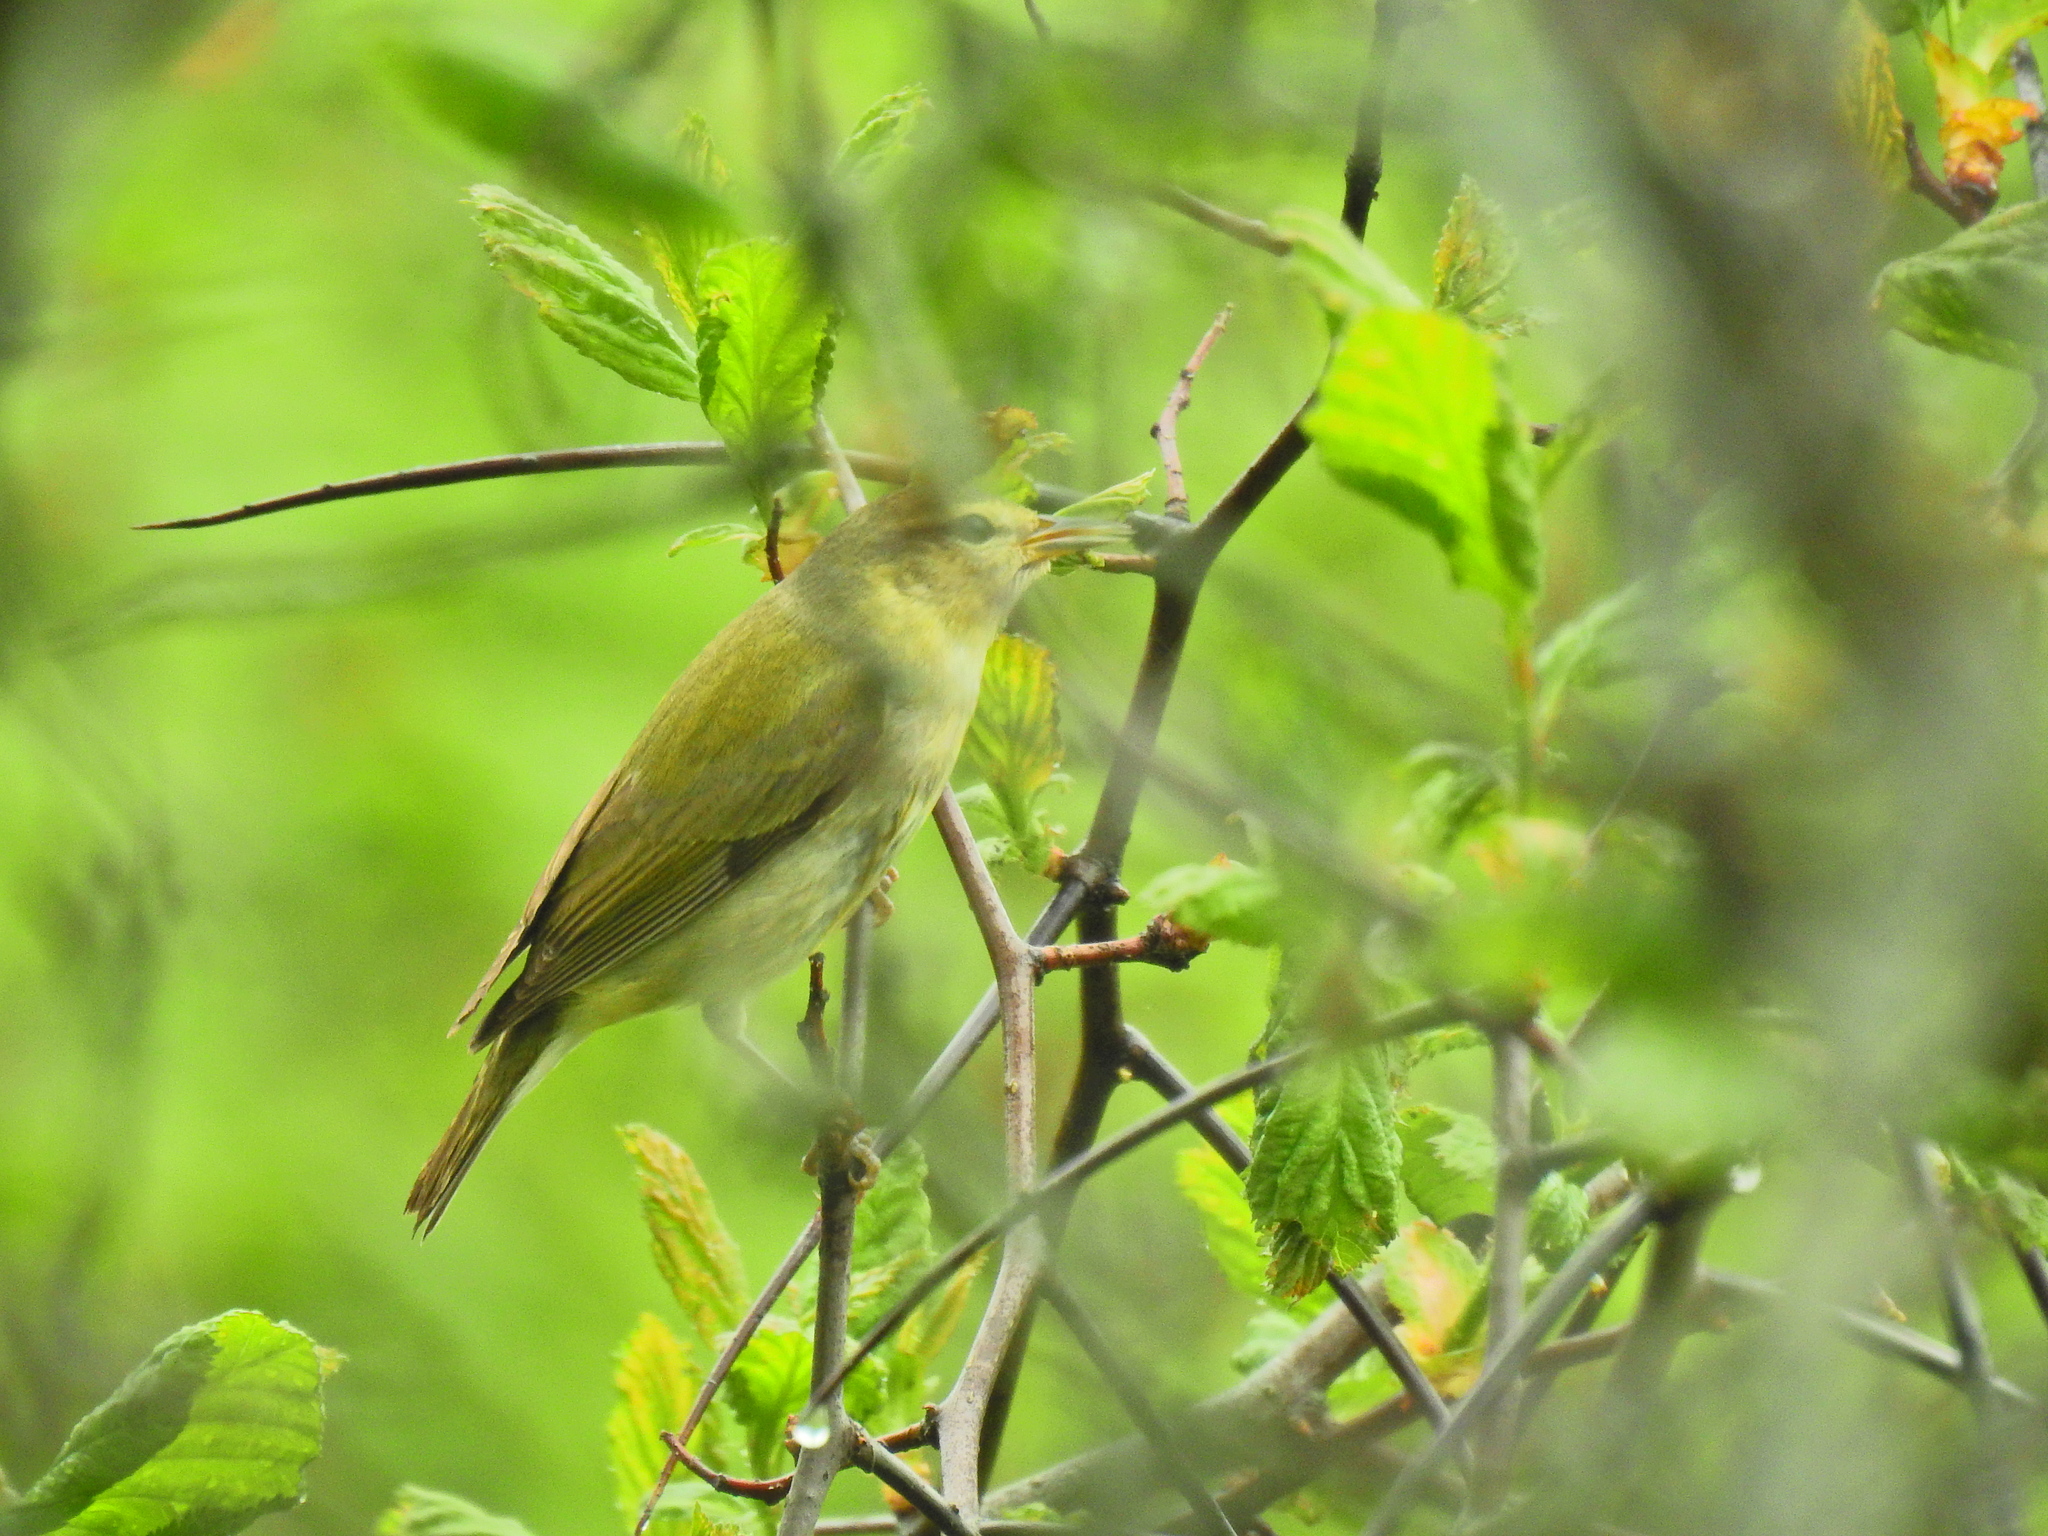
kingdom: Animalia
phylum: Chordata
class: Aves
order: Passeriformes
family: Parulidae
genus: Leiothlypis
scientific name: Leiothlypis peregrina
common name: Tennessee warbler
